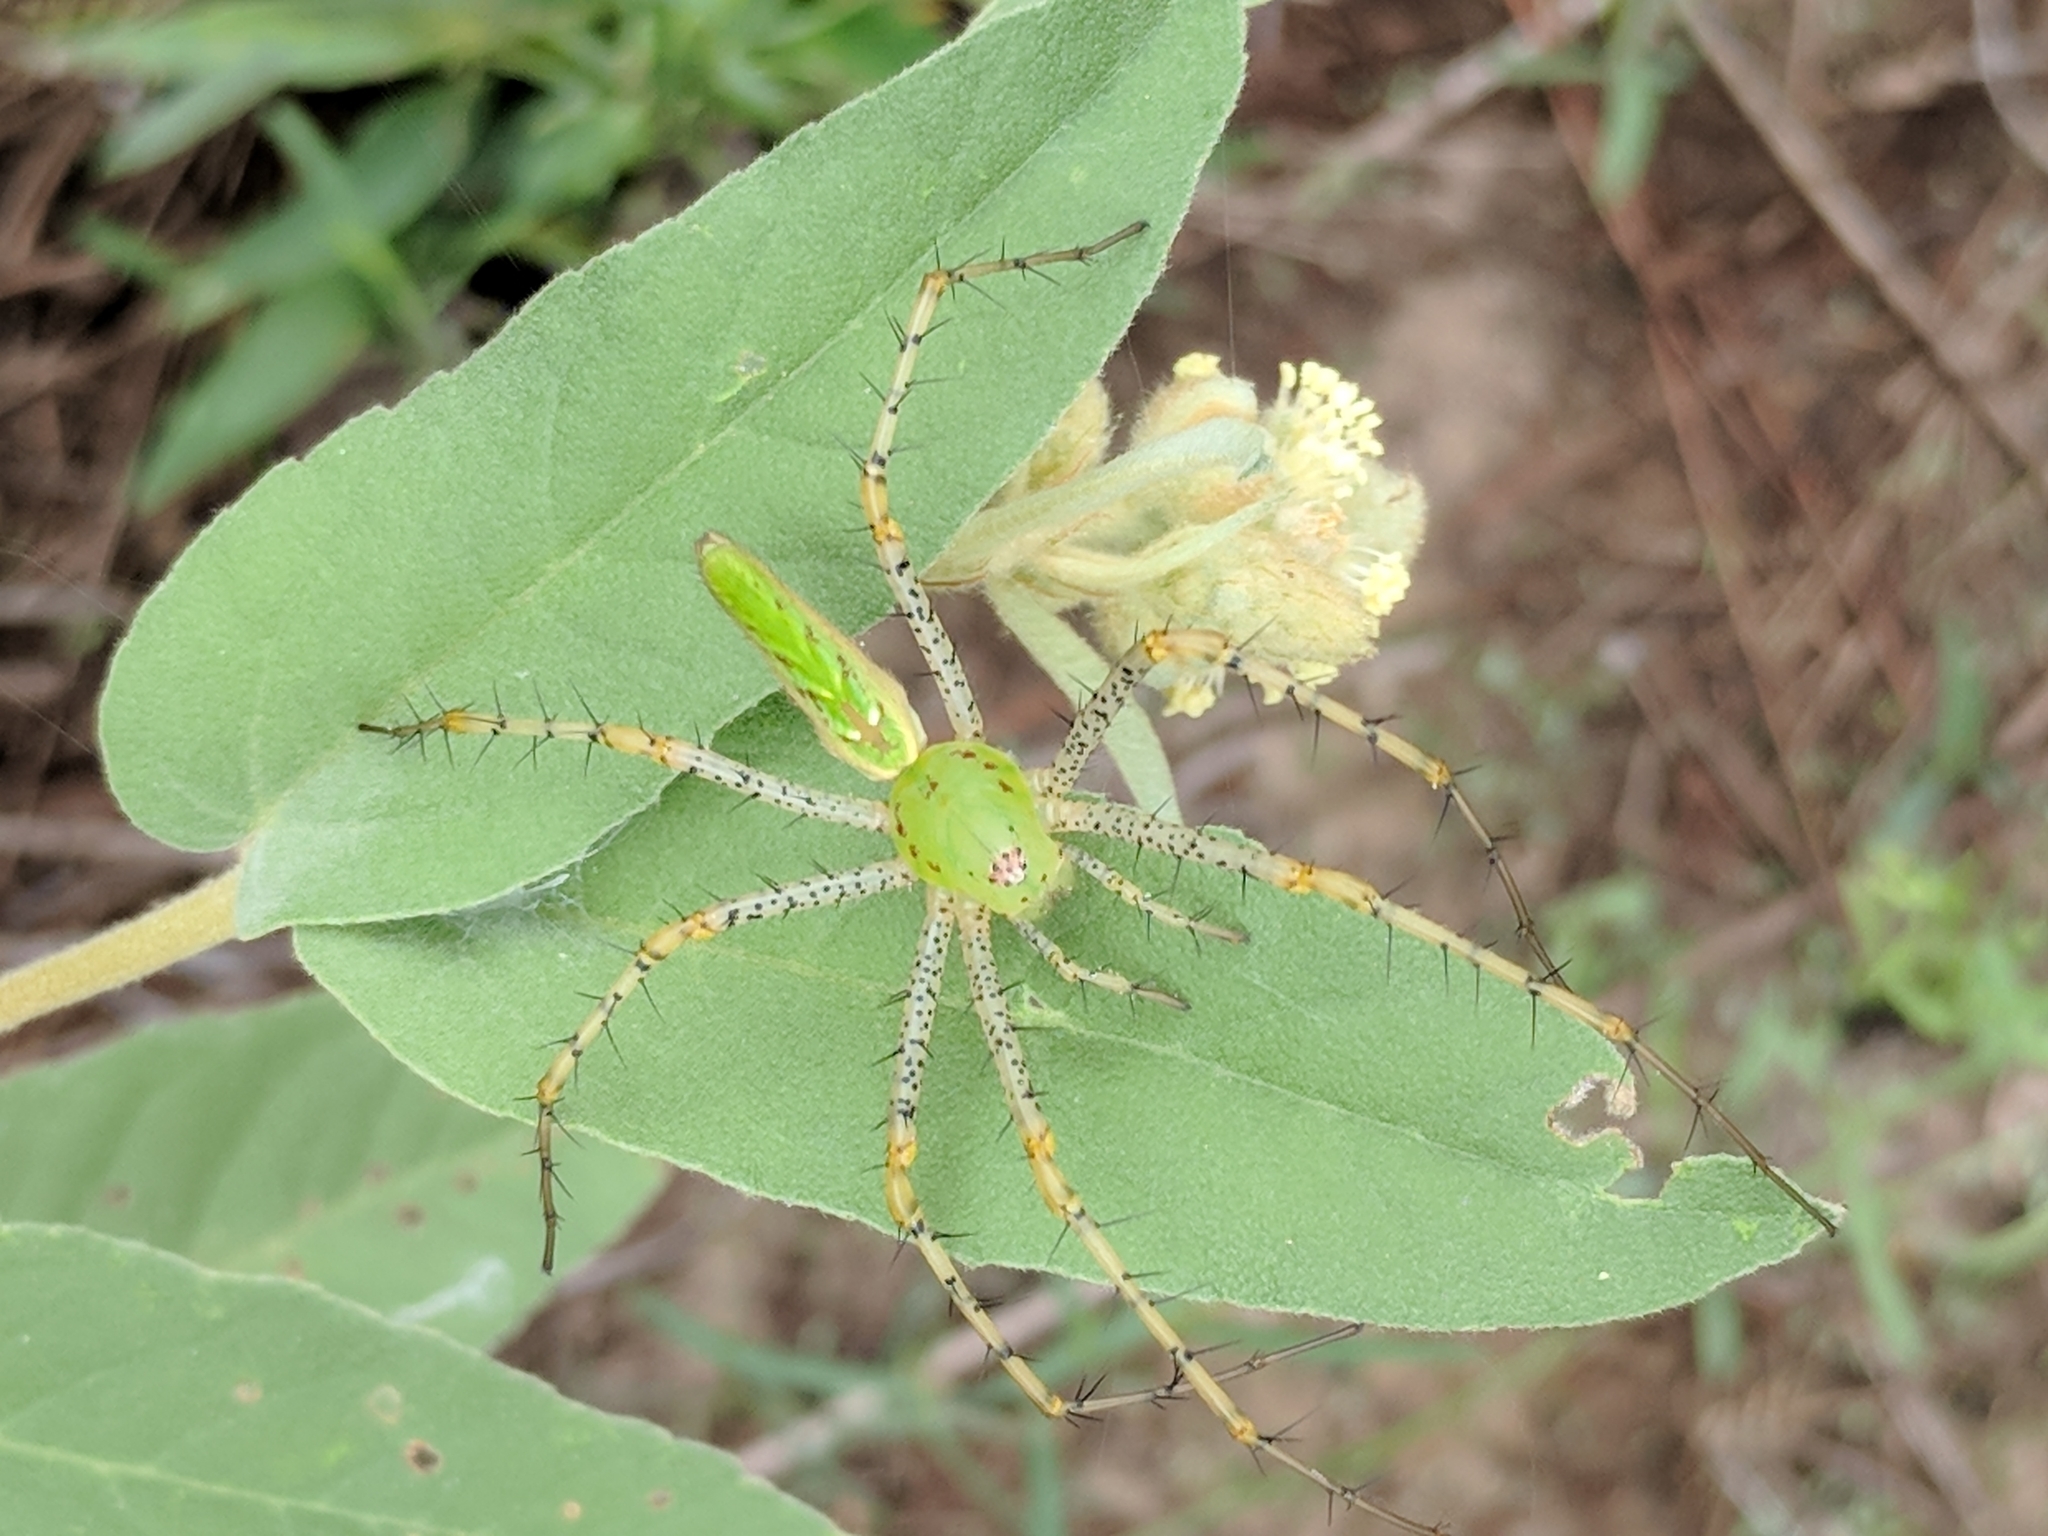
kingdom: Animalia
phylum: Arthropoda
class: Arachnida
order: Araneae
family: Oxyopidae
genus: Peucetia
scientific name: Peucetia viridans
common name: Lynx spiders
